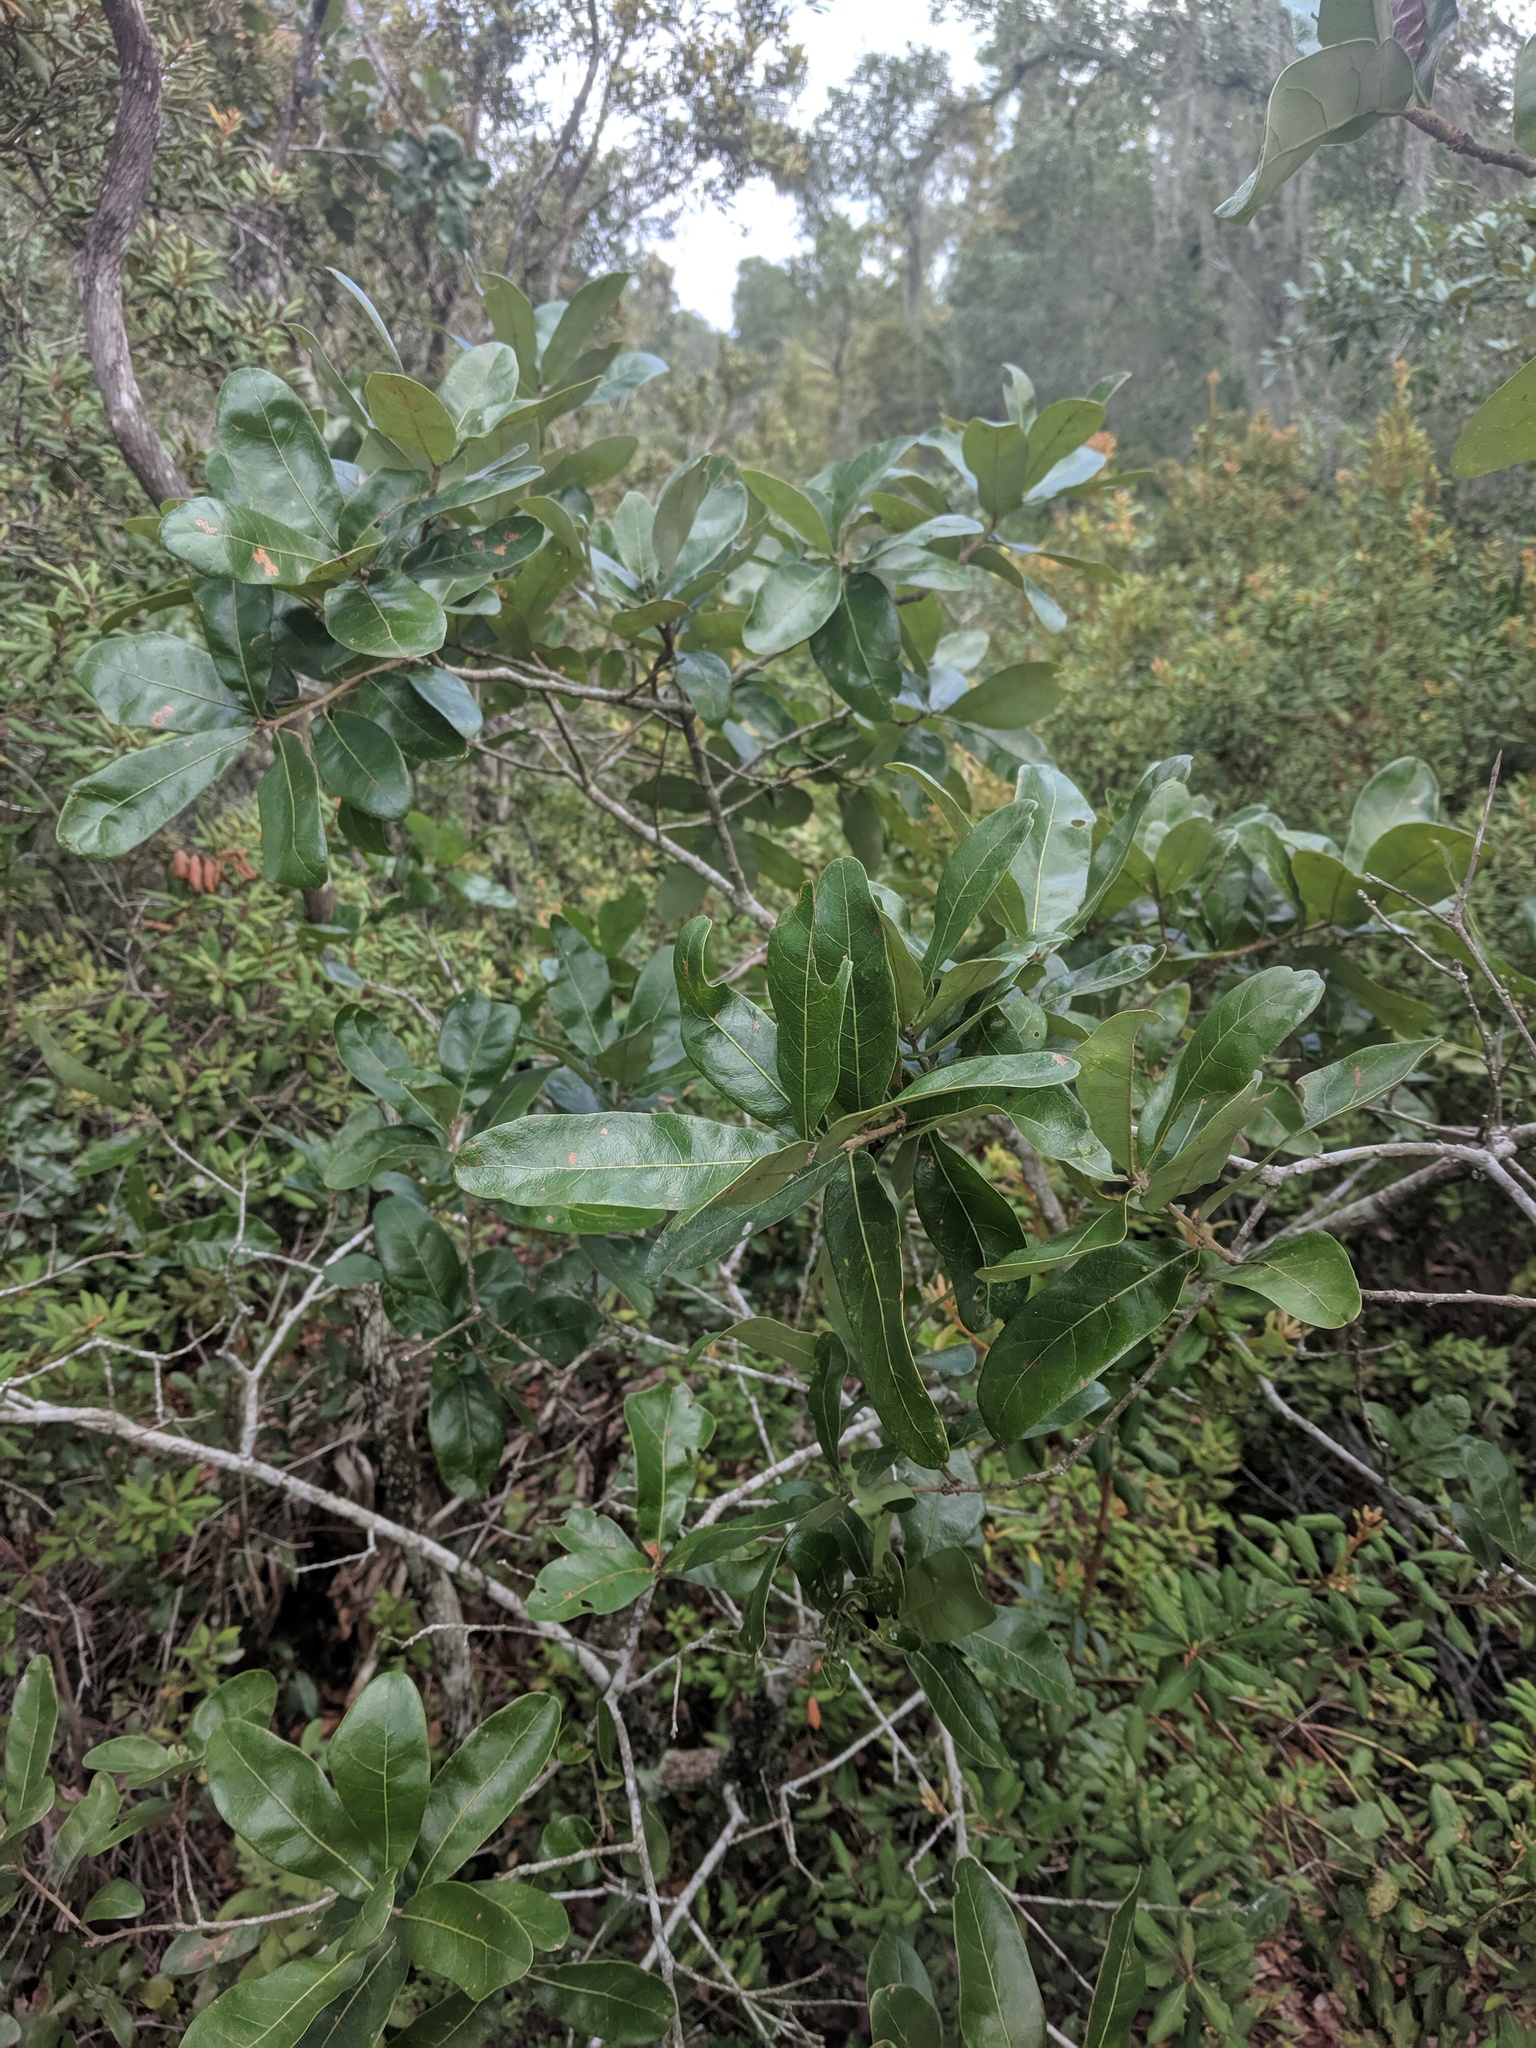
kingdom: Plantae
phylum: Tracheophyta
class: Magnoliopsida
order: Fagales
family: Fagaceae
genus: Quercus
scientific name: Quercus chapmanii
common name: Chapman oak
